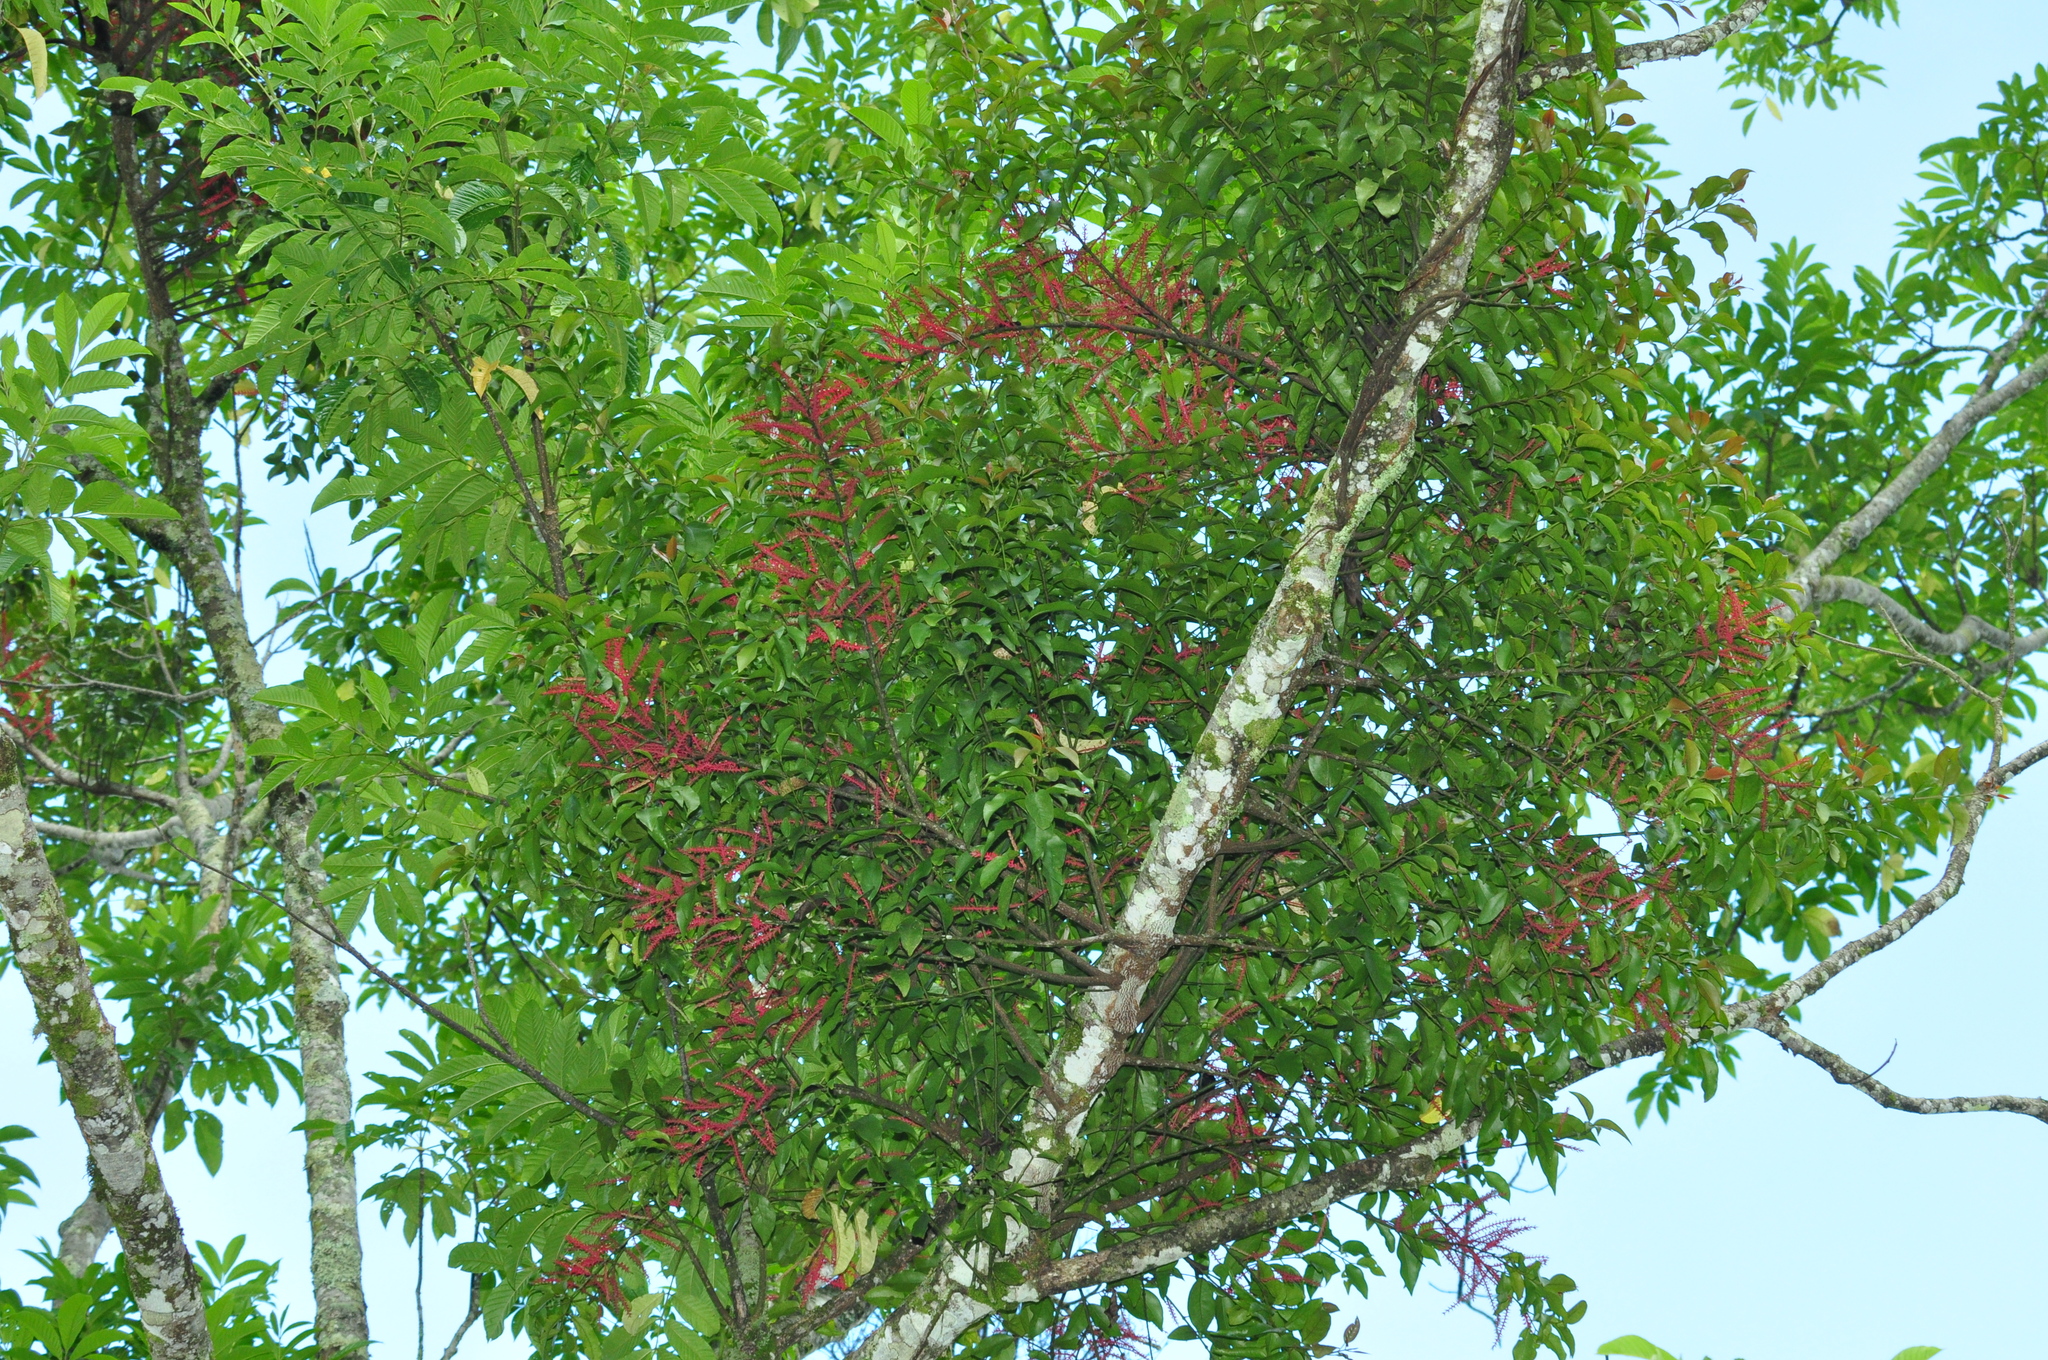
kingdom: Plantae
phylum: Tracheophyta
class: Magnoliopsida
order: Santalales
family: Loranthaceae
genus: Helixanthera
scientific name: Helixanthera parasitica
